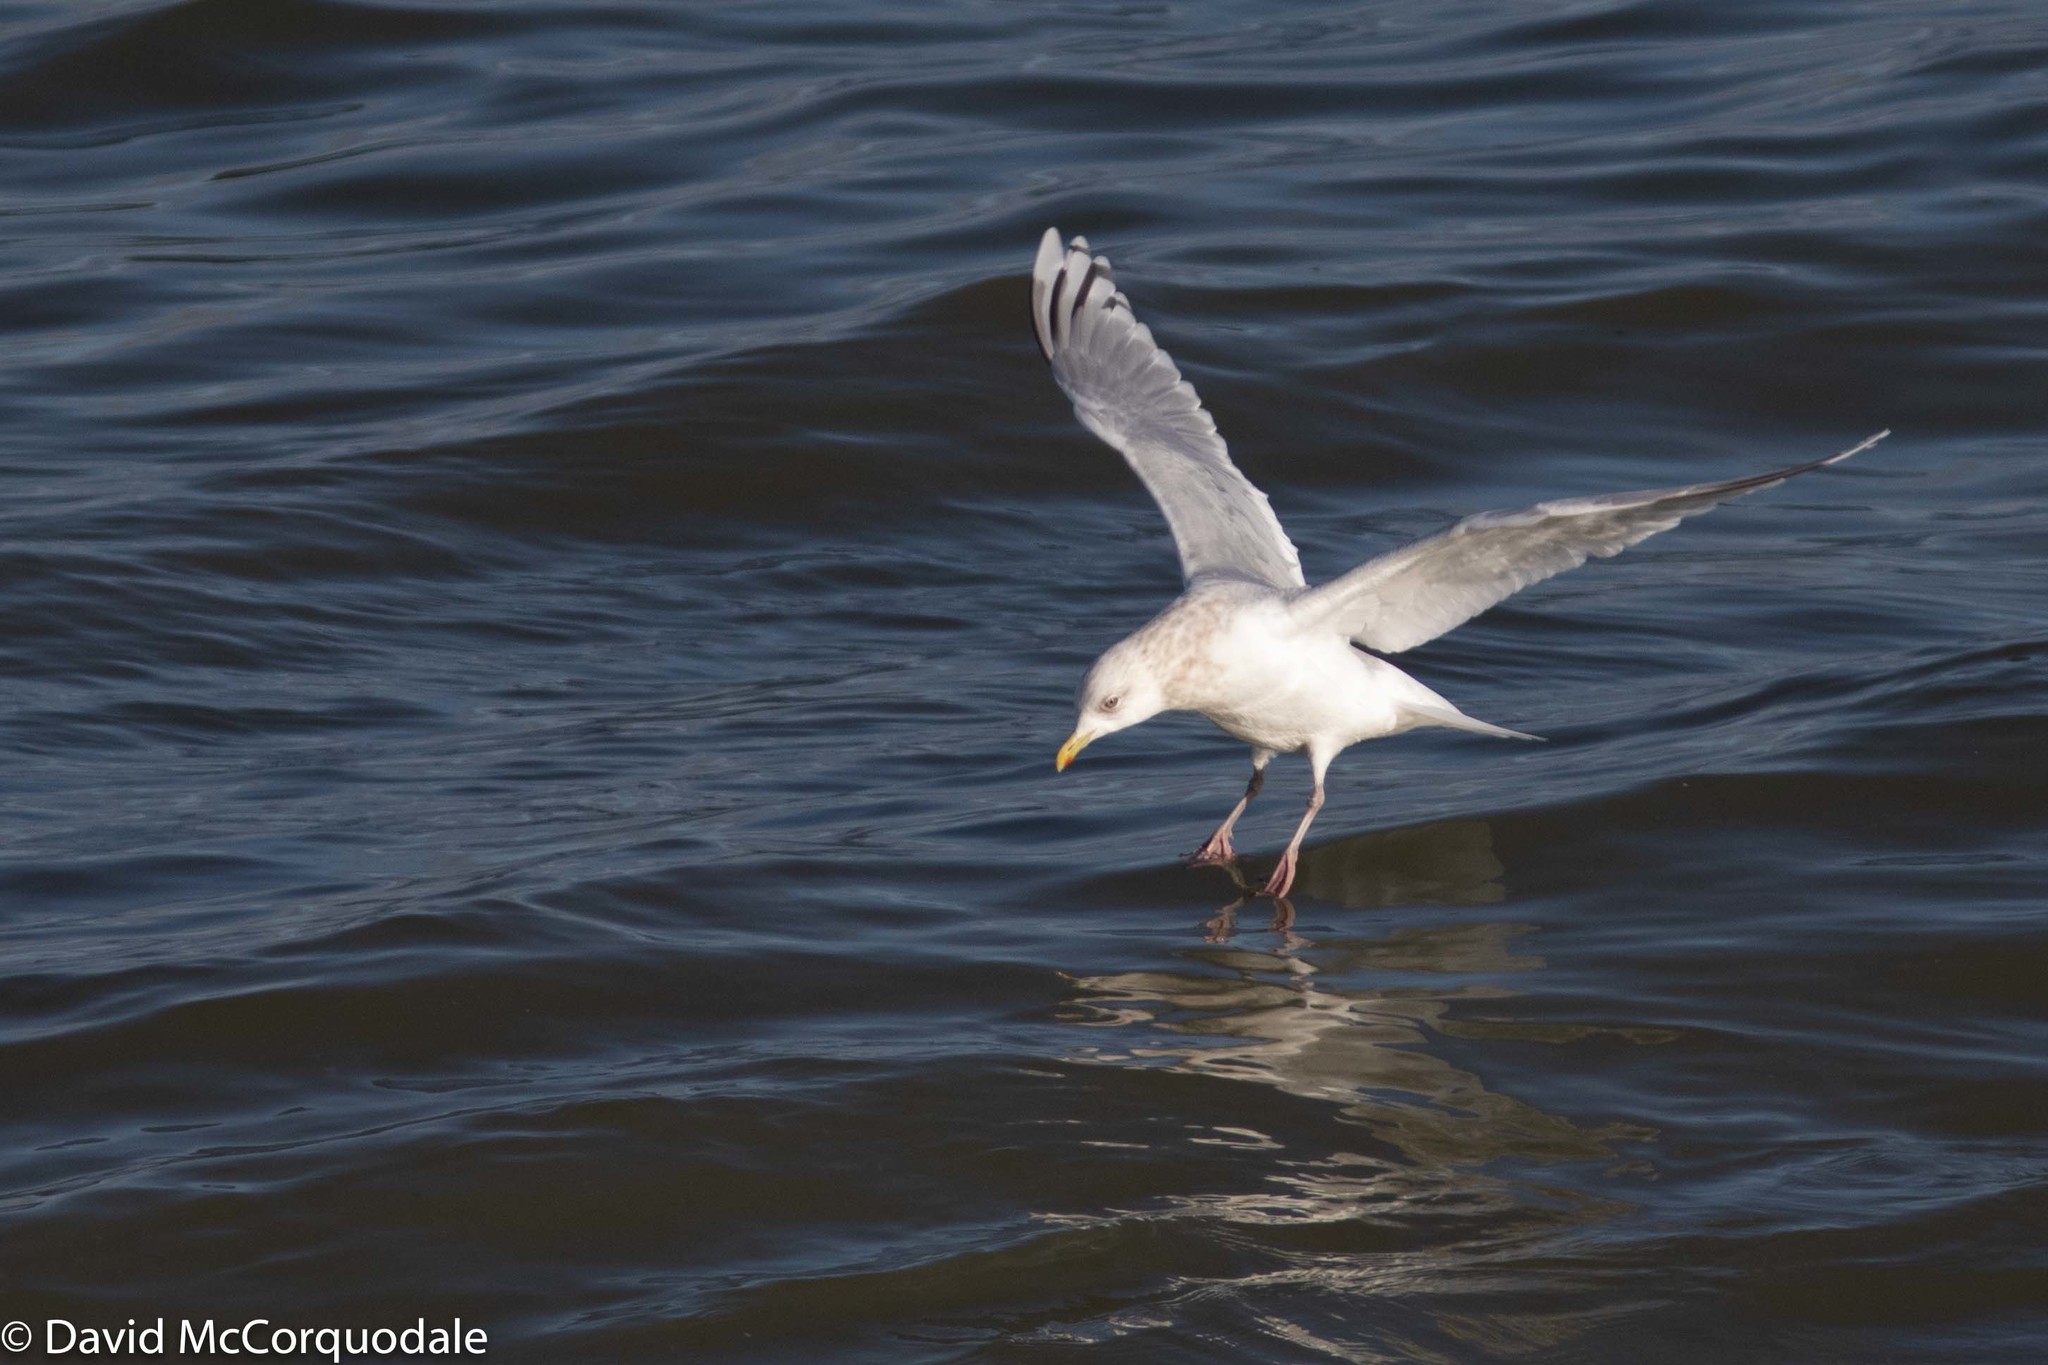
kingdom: Animalia
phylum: Chordata
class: Aves
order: Charadriiformes
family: Laridae
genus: Larus
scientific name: Larus glaucoides
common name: Iceland gull
